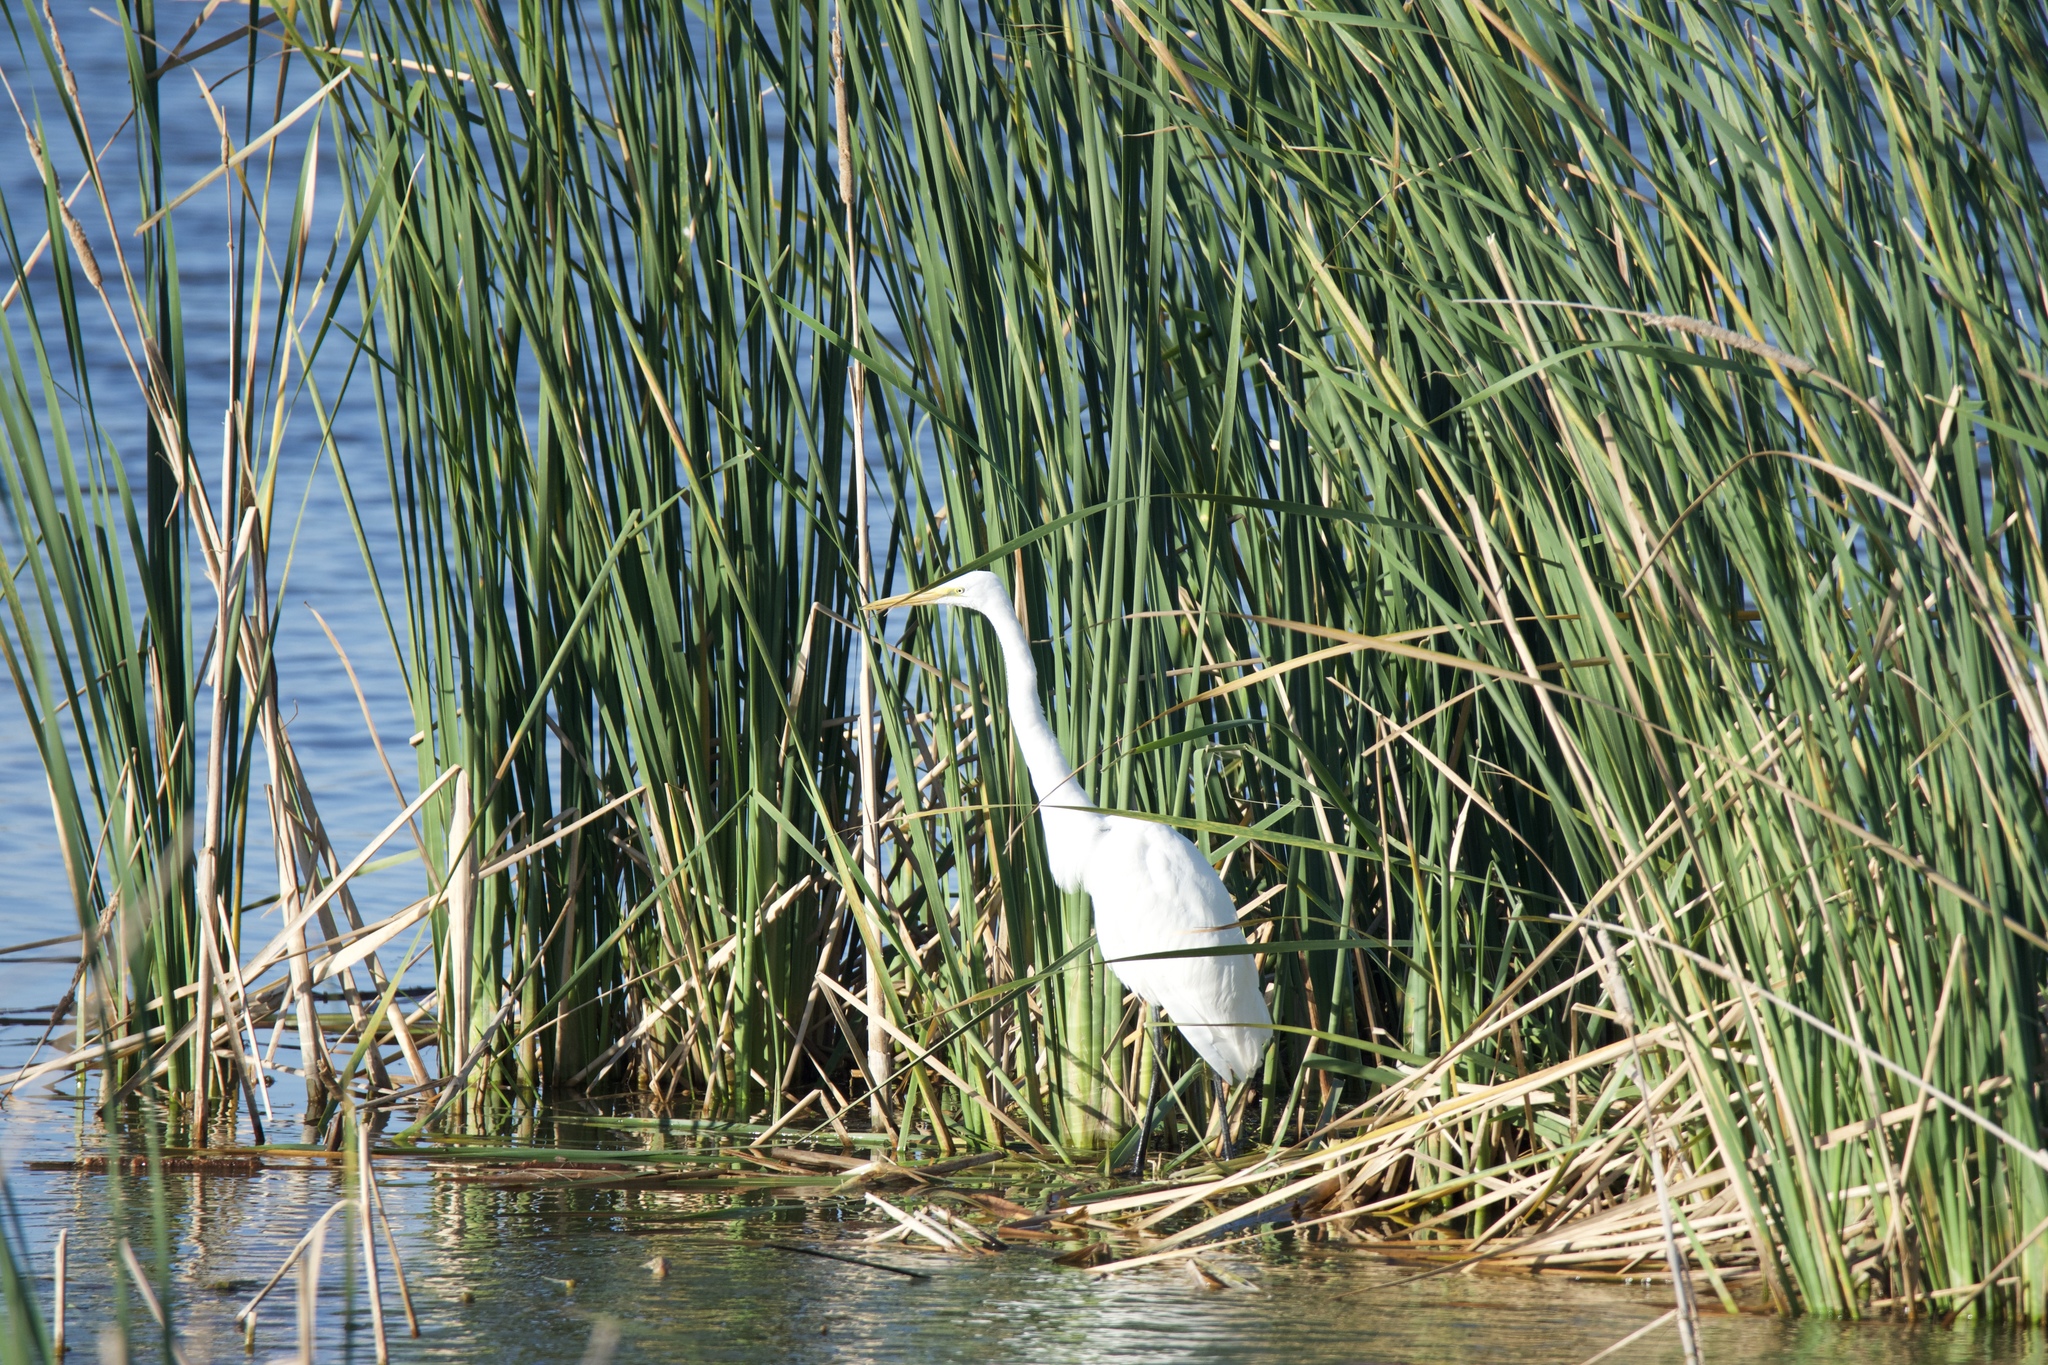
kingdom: Animalia
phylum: Chordata
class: Aves
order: Pelecaniformes
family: Ardeidae
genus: Ardea
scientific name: Ardea alba
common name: Great egret
